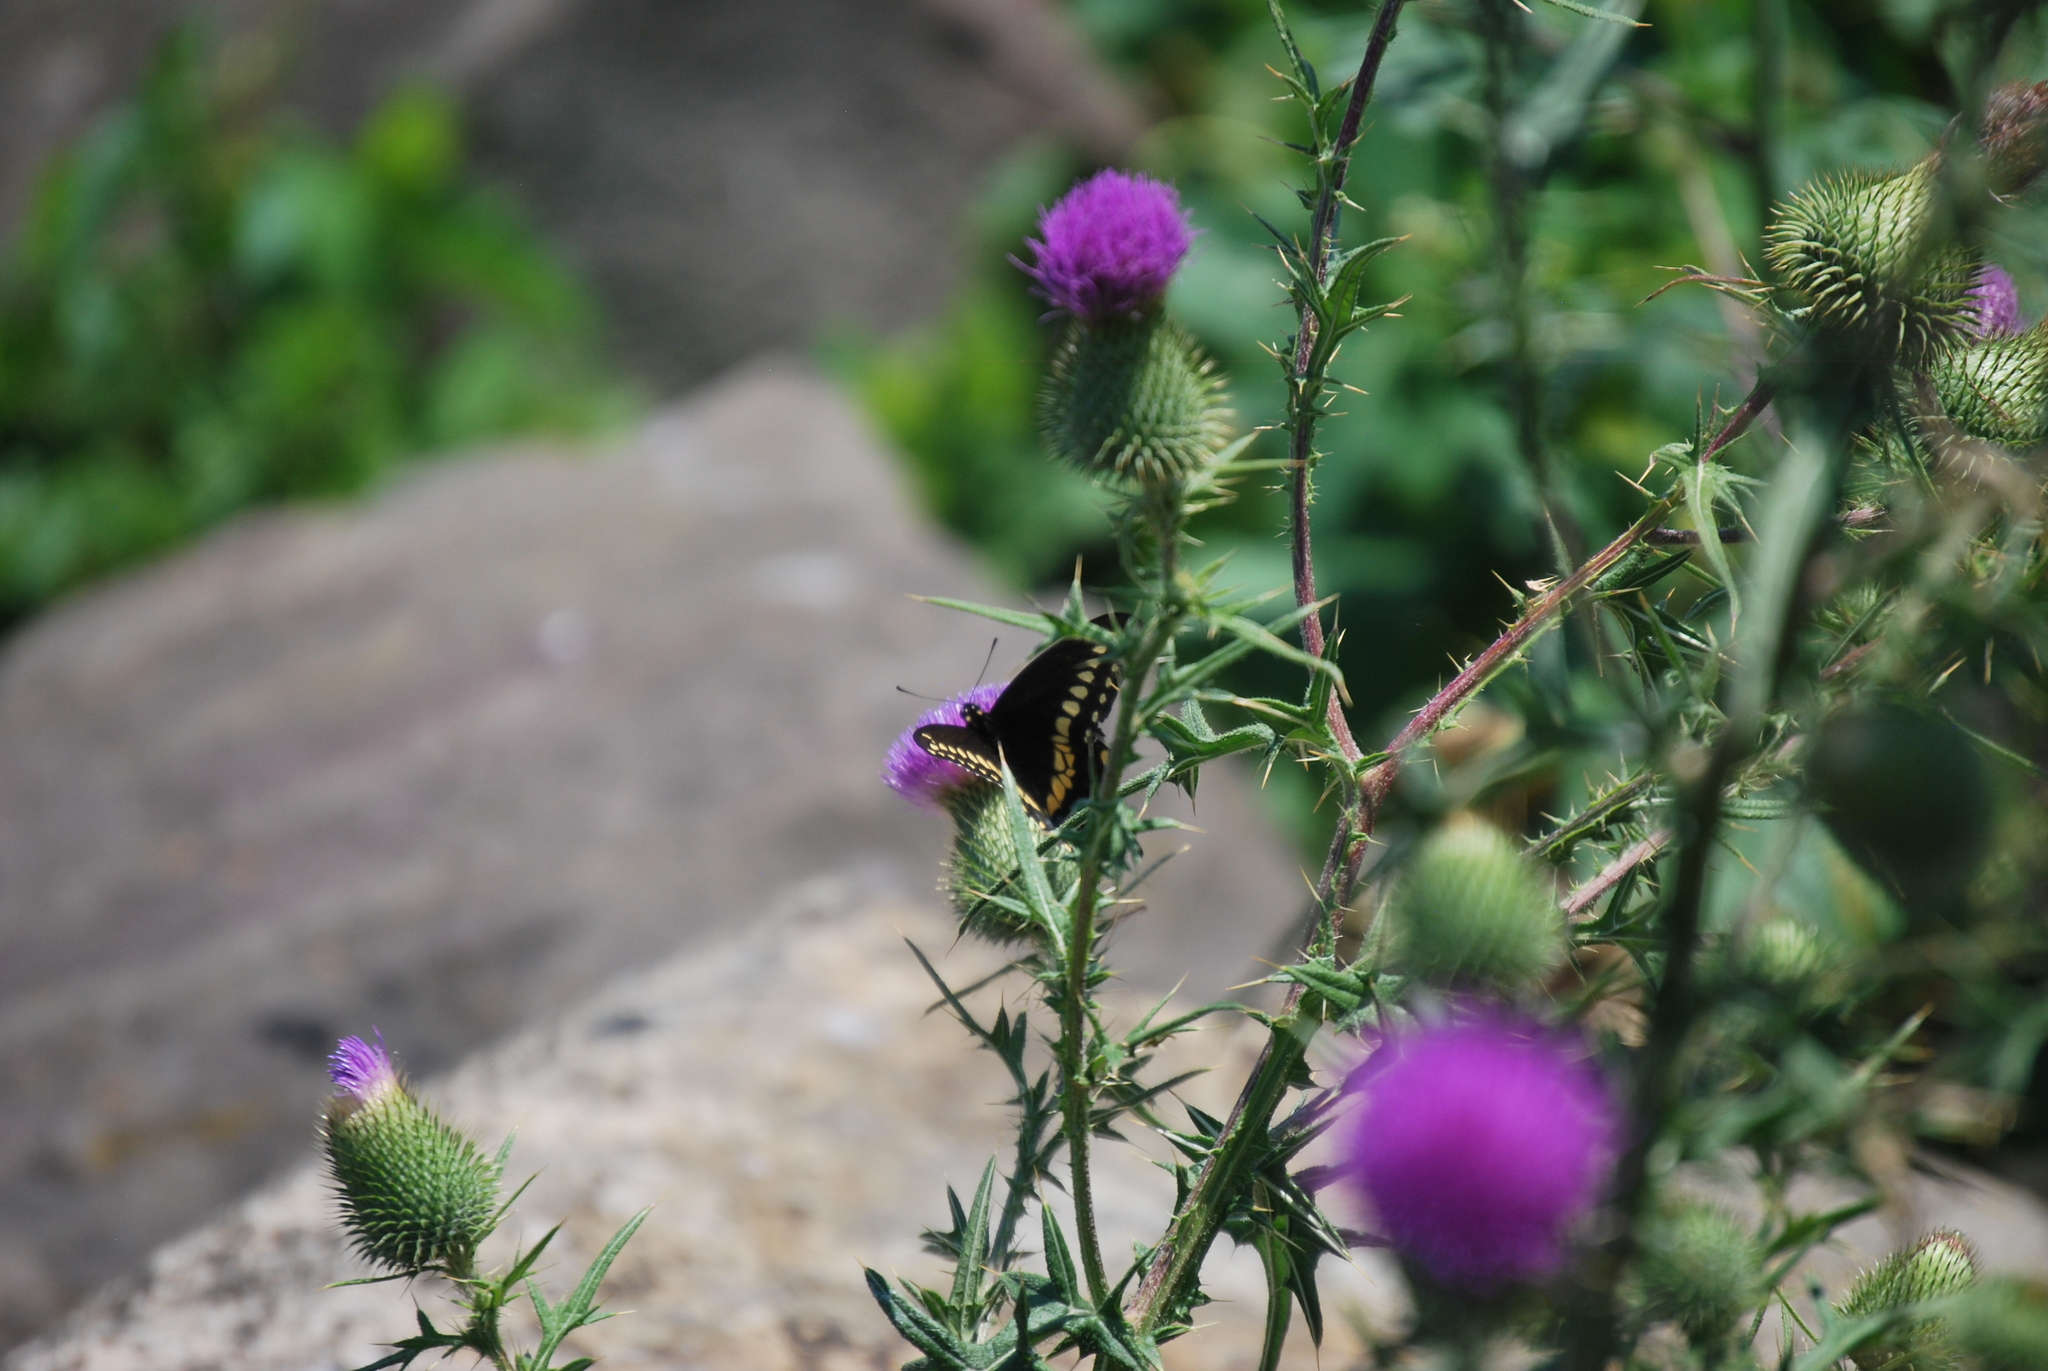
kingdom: Animalia
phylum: Arthropoda
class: Insecta
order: Lepidoptera
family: Papilionidae
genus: Papilio
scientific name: Papilio polyxenes
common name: Black swallowtail
